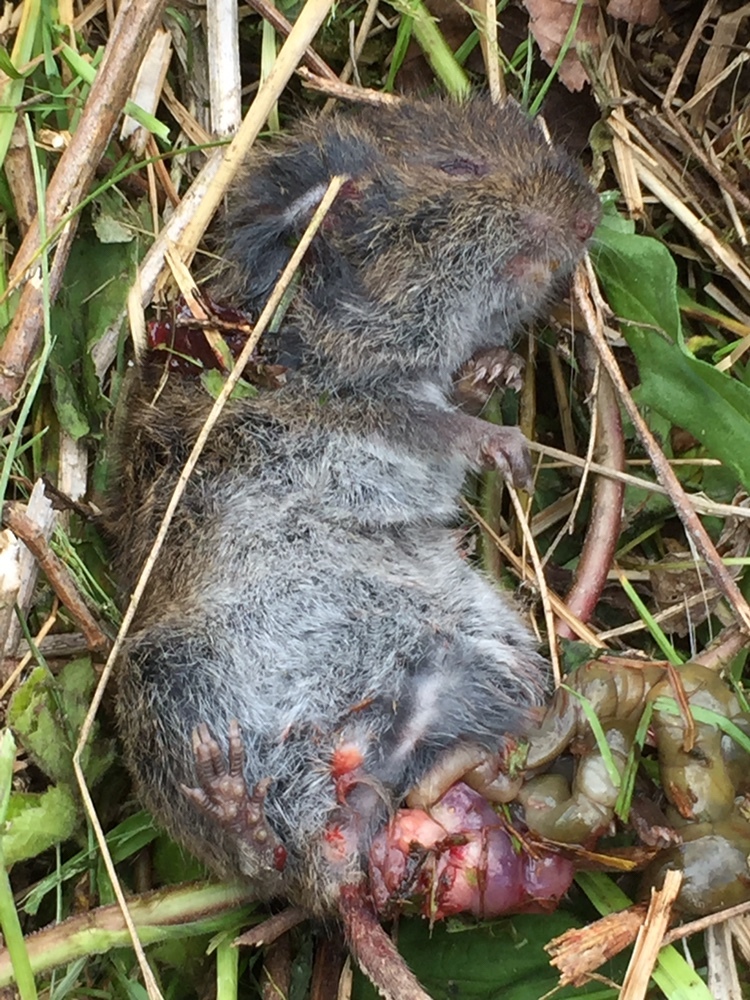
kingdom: Animalia
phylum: Chordata
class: Mammalia
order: Rodentia
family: Cricetidae
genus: Microtus
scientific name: Microtus pennsylvanicus
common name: Meadow vole
